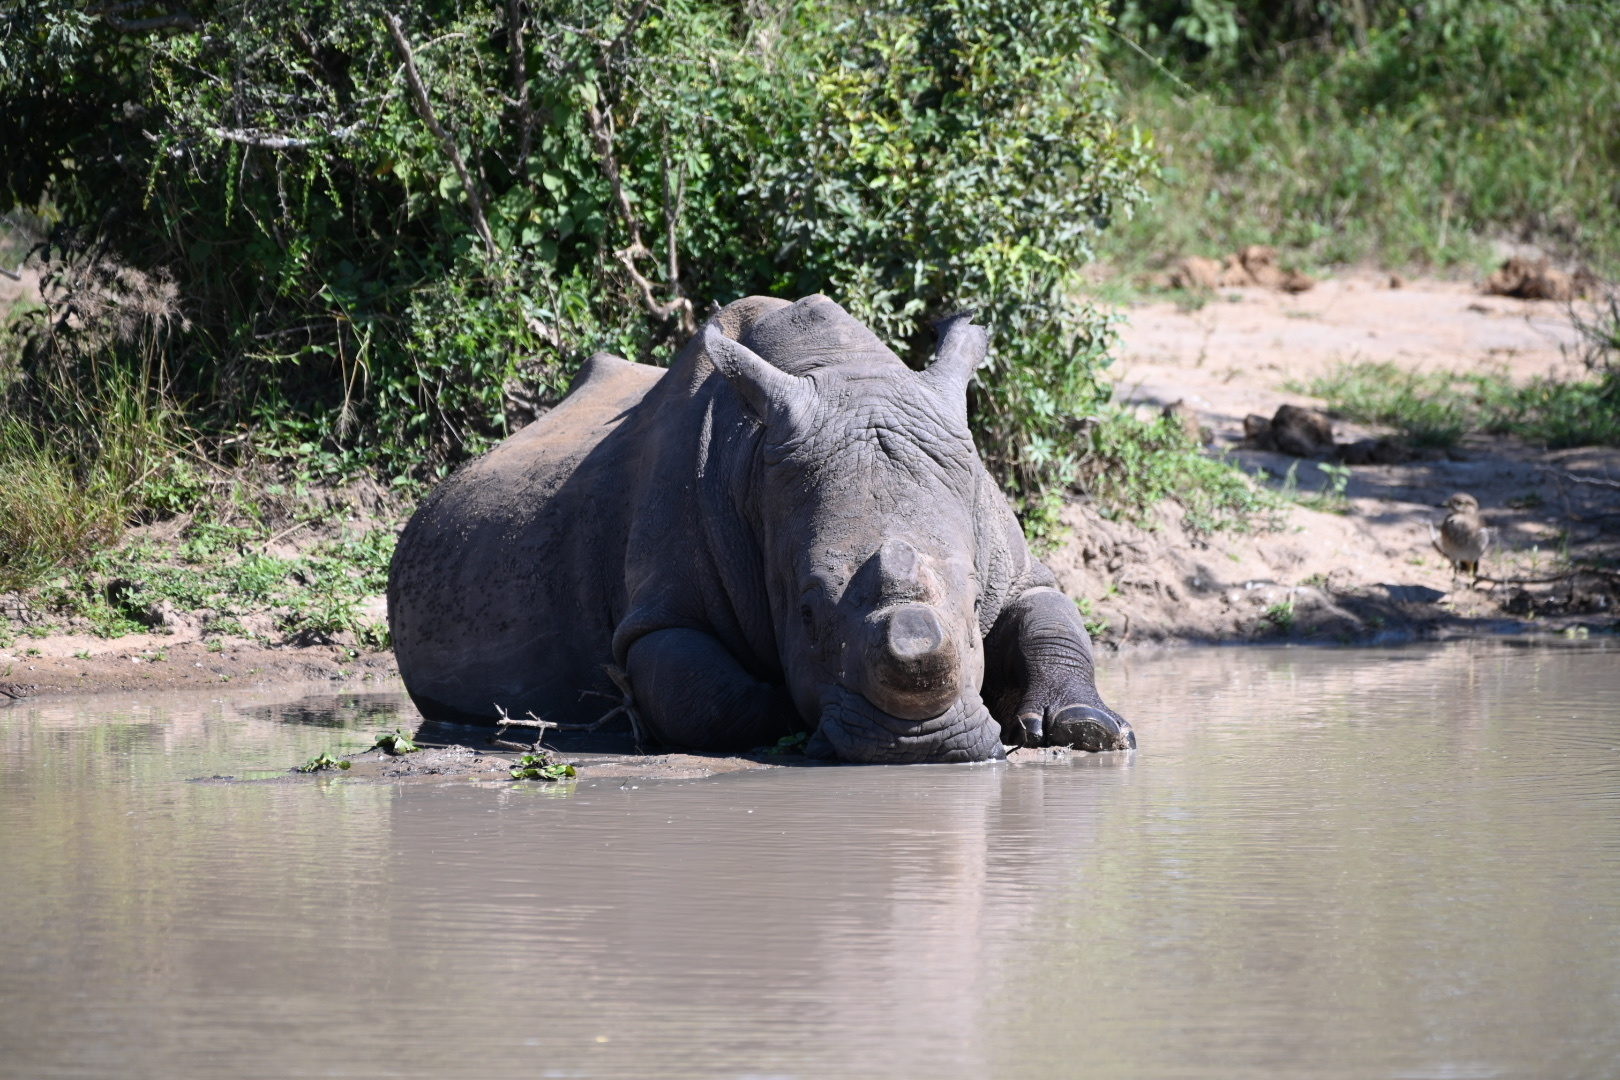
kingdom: Animalia
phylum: Chordata
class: Mammalia
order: Perissodactyla
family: Rhinocerotidae
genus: Ceratotherium
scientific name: Ceratotherium simum
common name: White rhinoceros
